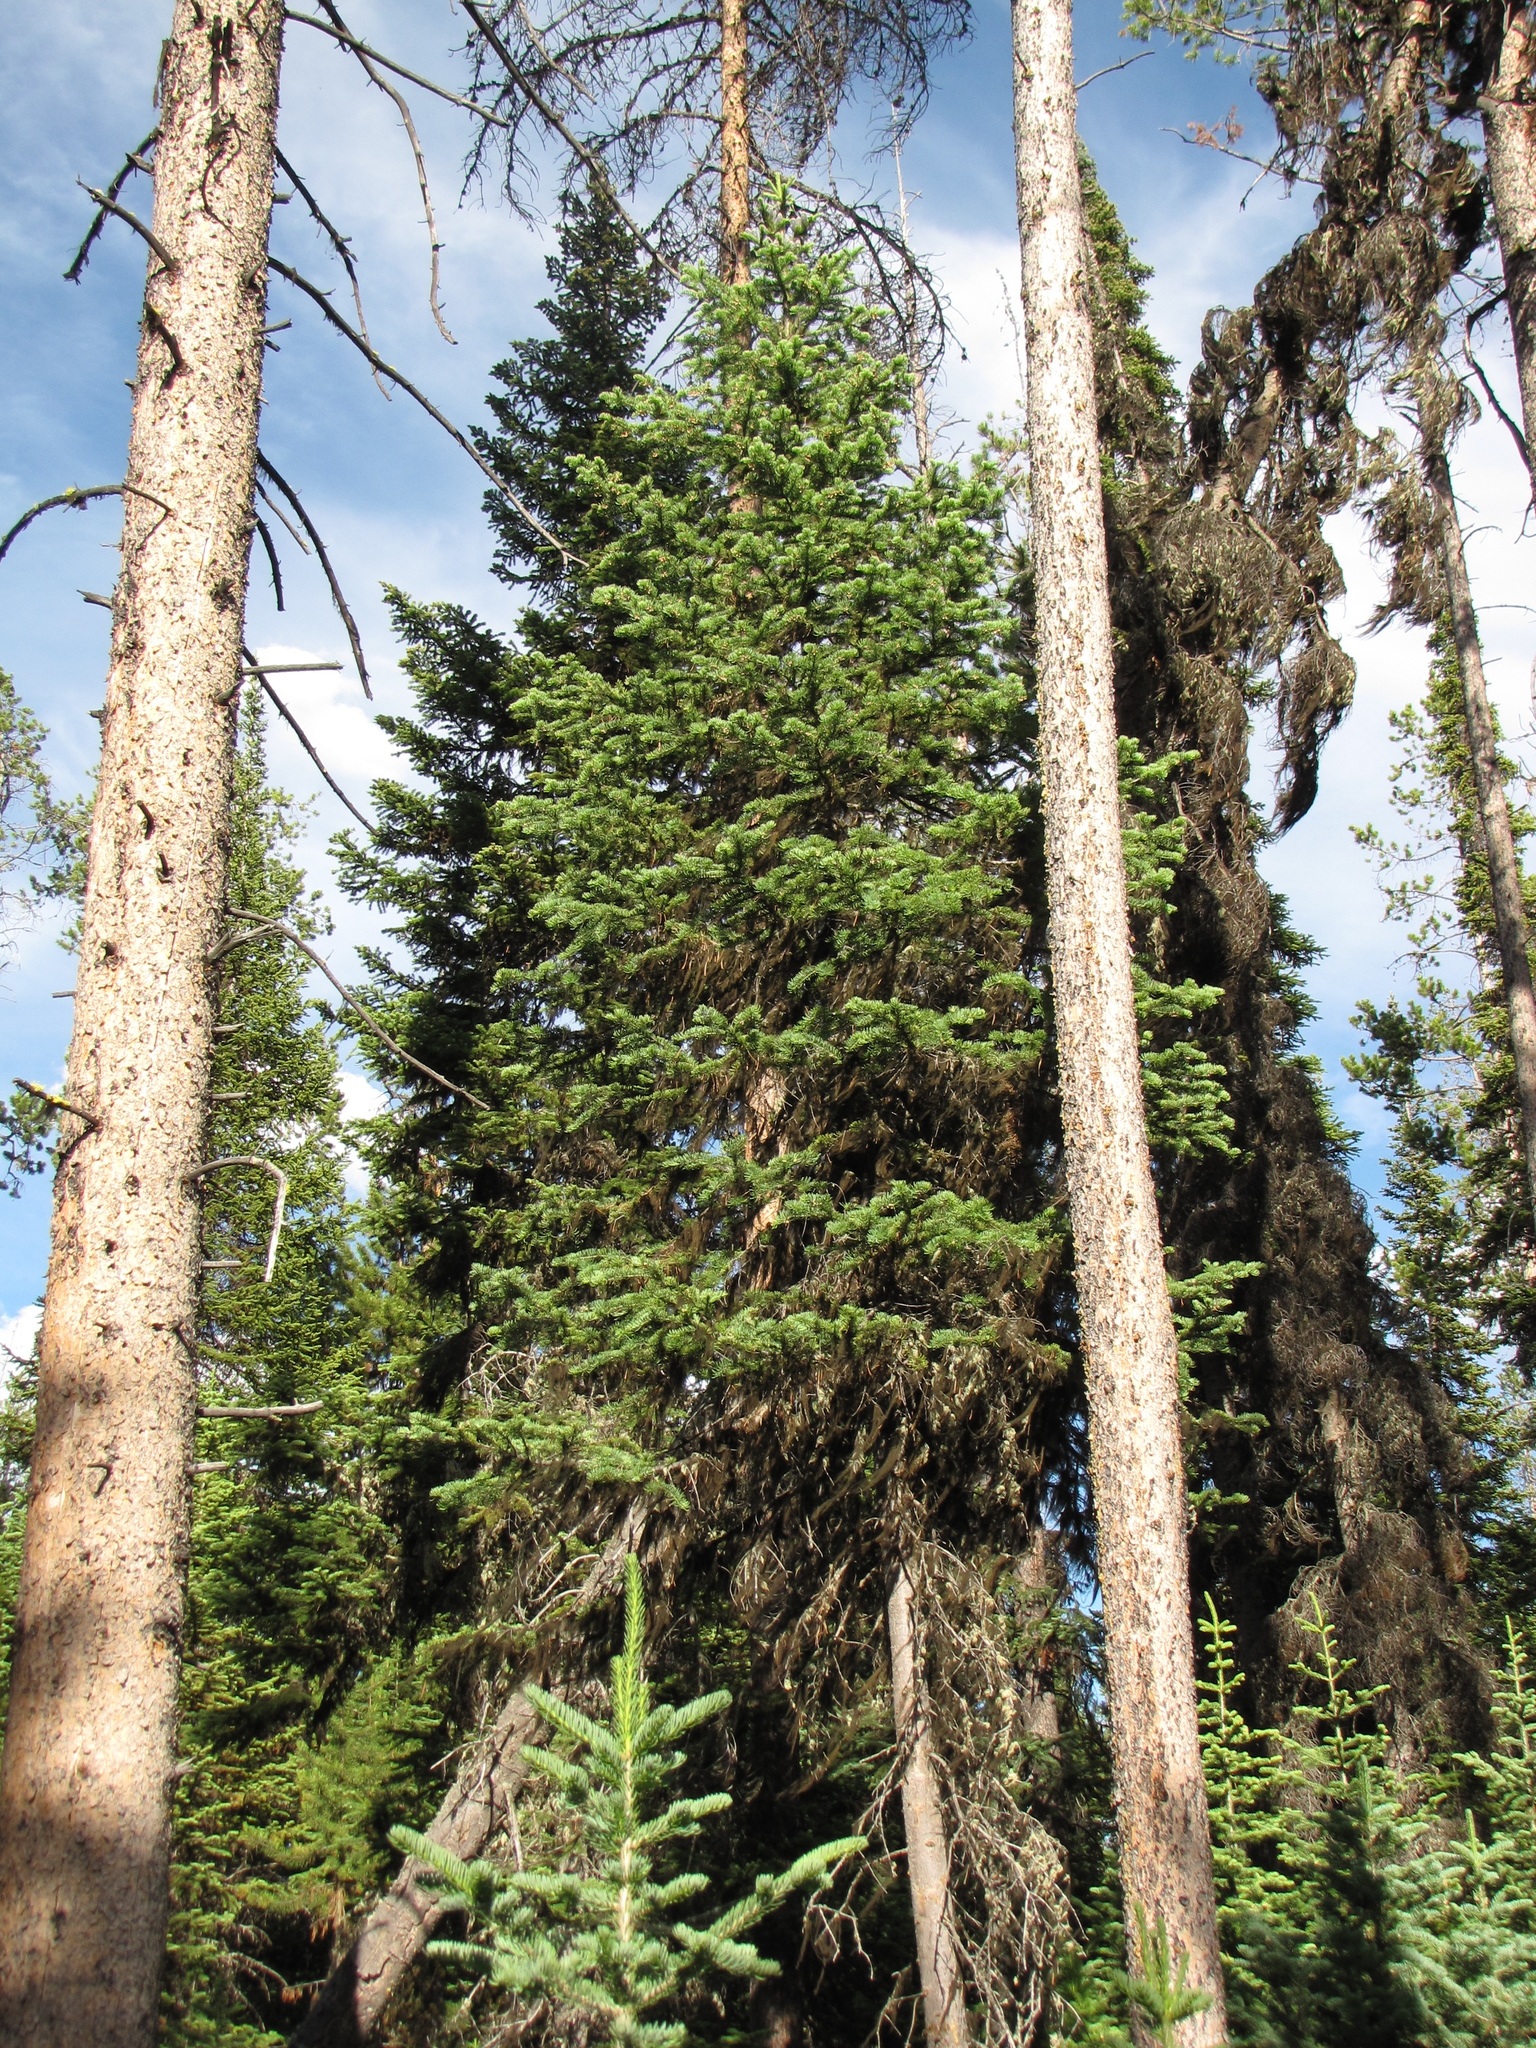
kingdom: Plantae
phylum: Tracheophyta
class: Pinopsida
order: Pinales
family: Pinaceae
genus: Abies
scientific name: Abies lasiocarpa
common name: Subalpine fir
